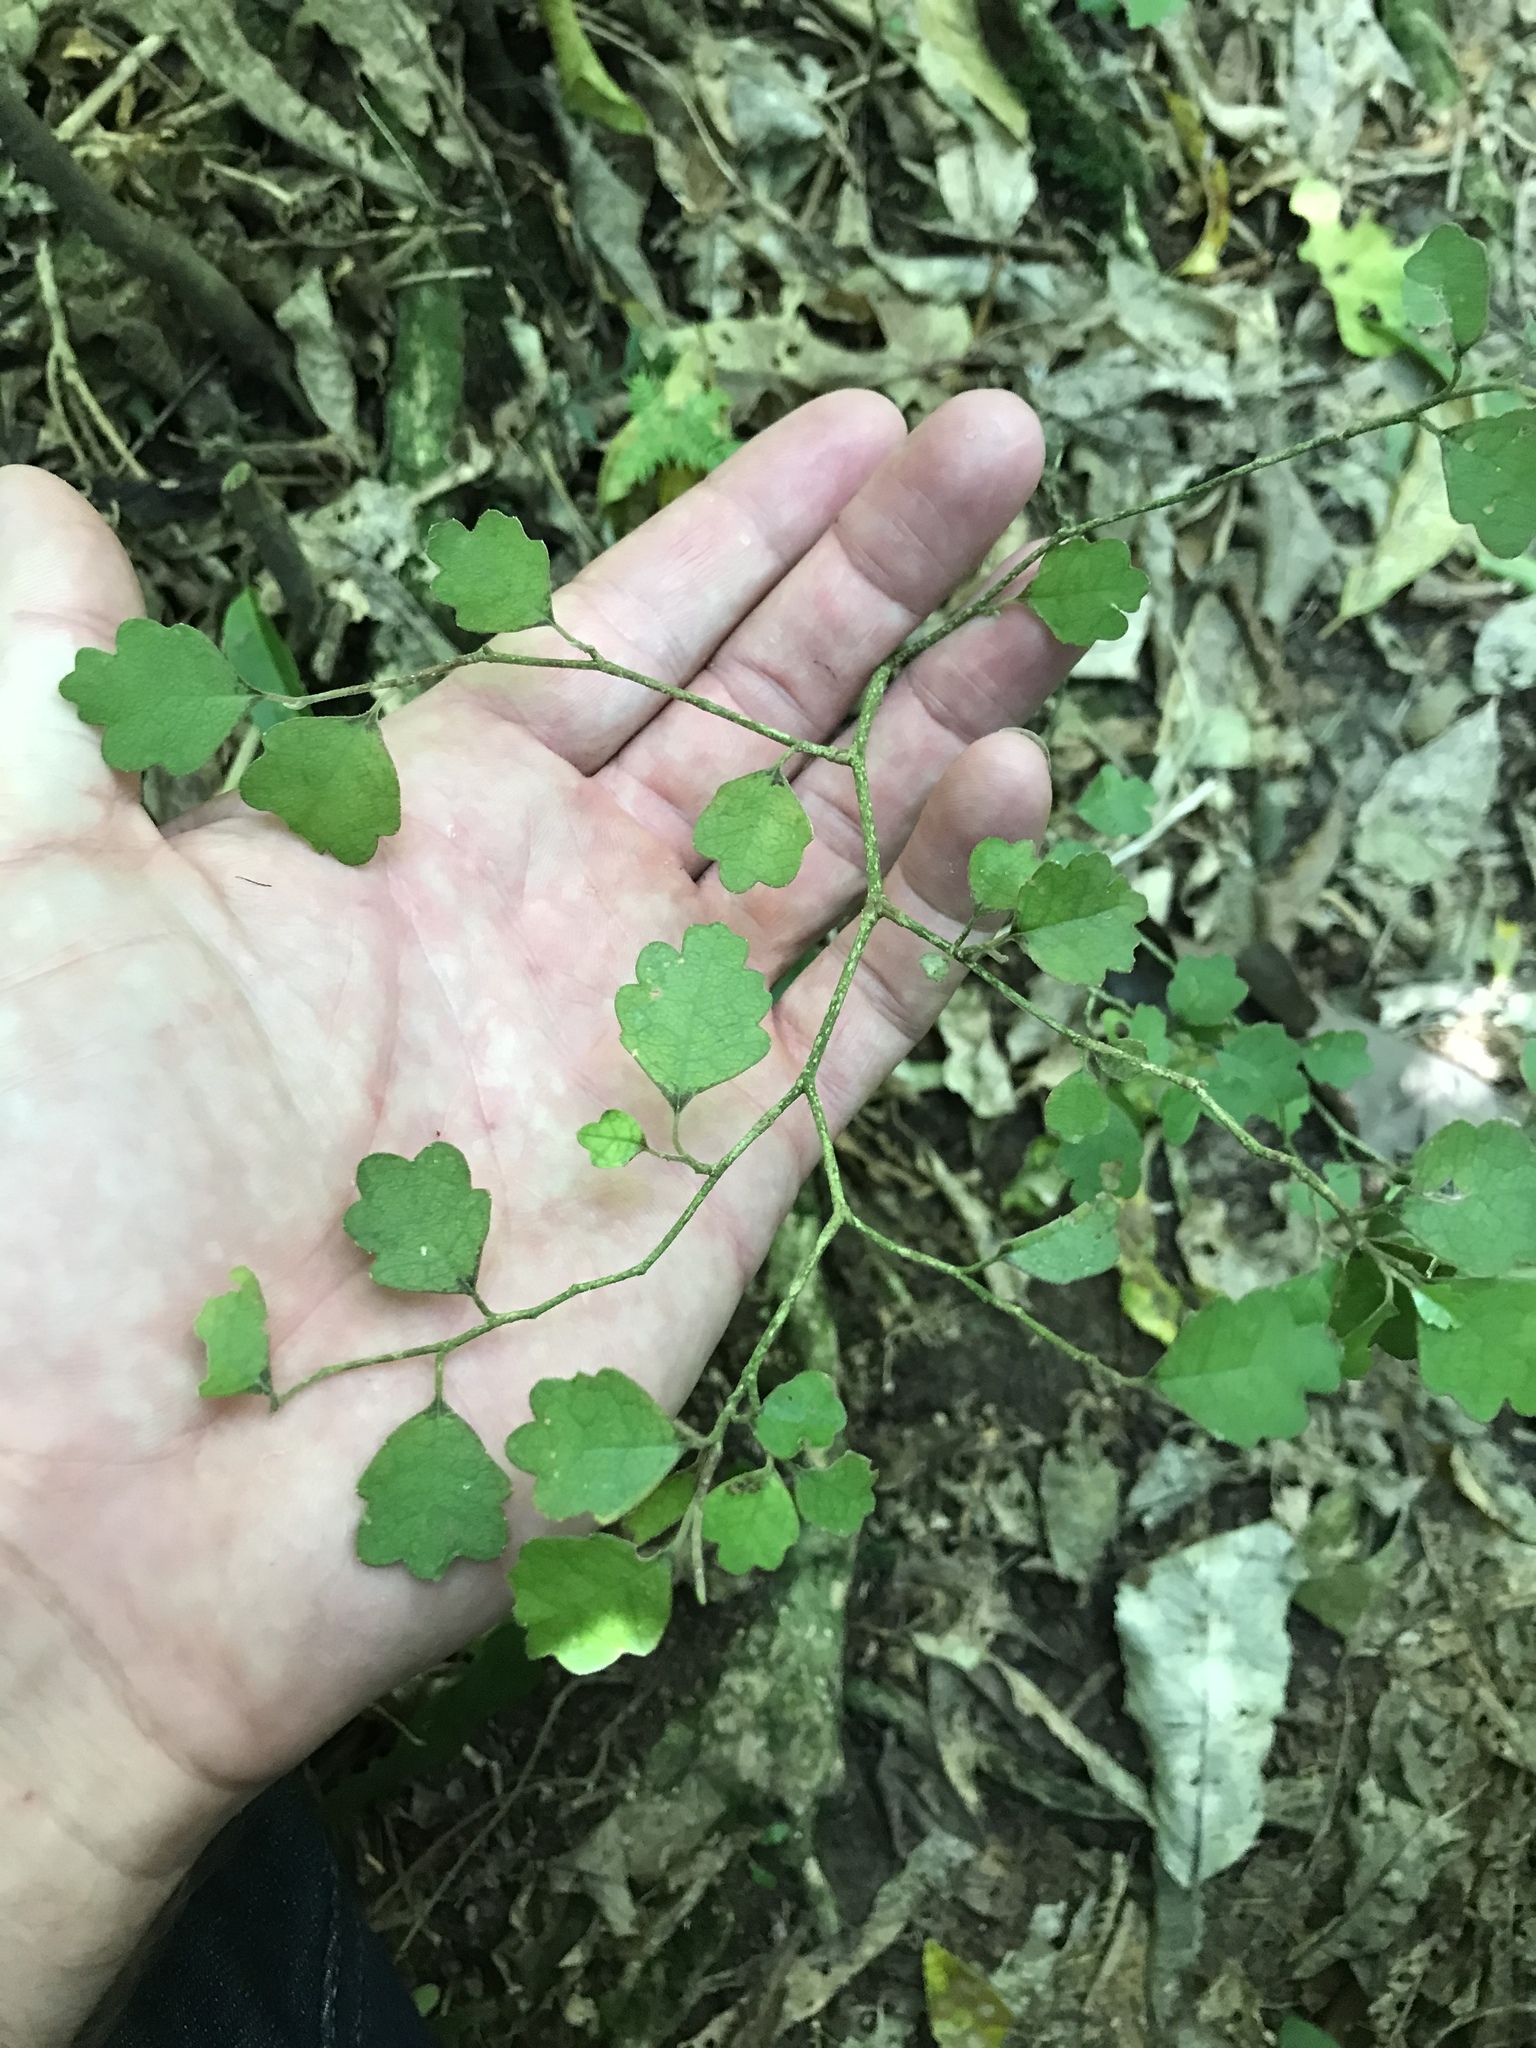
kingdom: Plantae
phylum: Tracheophyta
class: Magnoliopsida
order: Apiales
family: Pennantiaceae
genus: Pennantia
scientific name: Pennantia corymbosa
